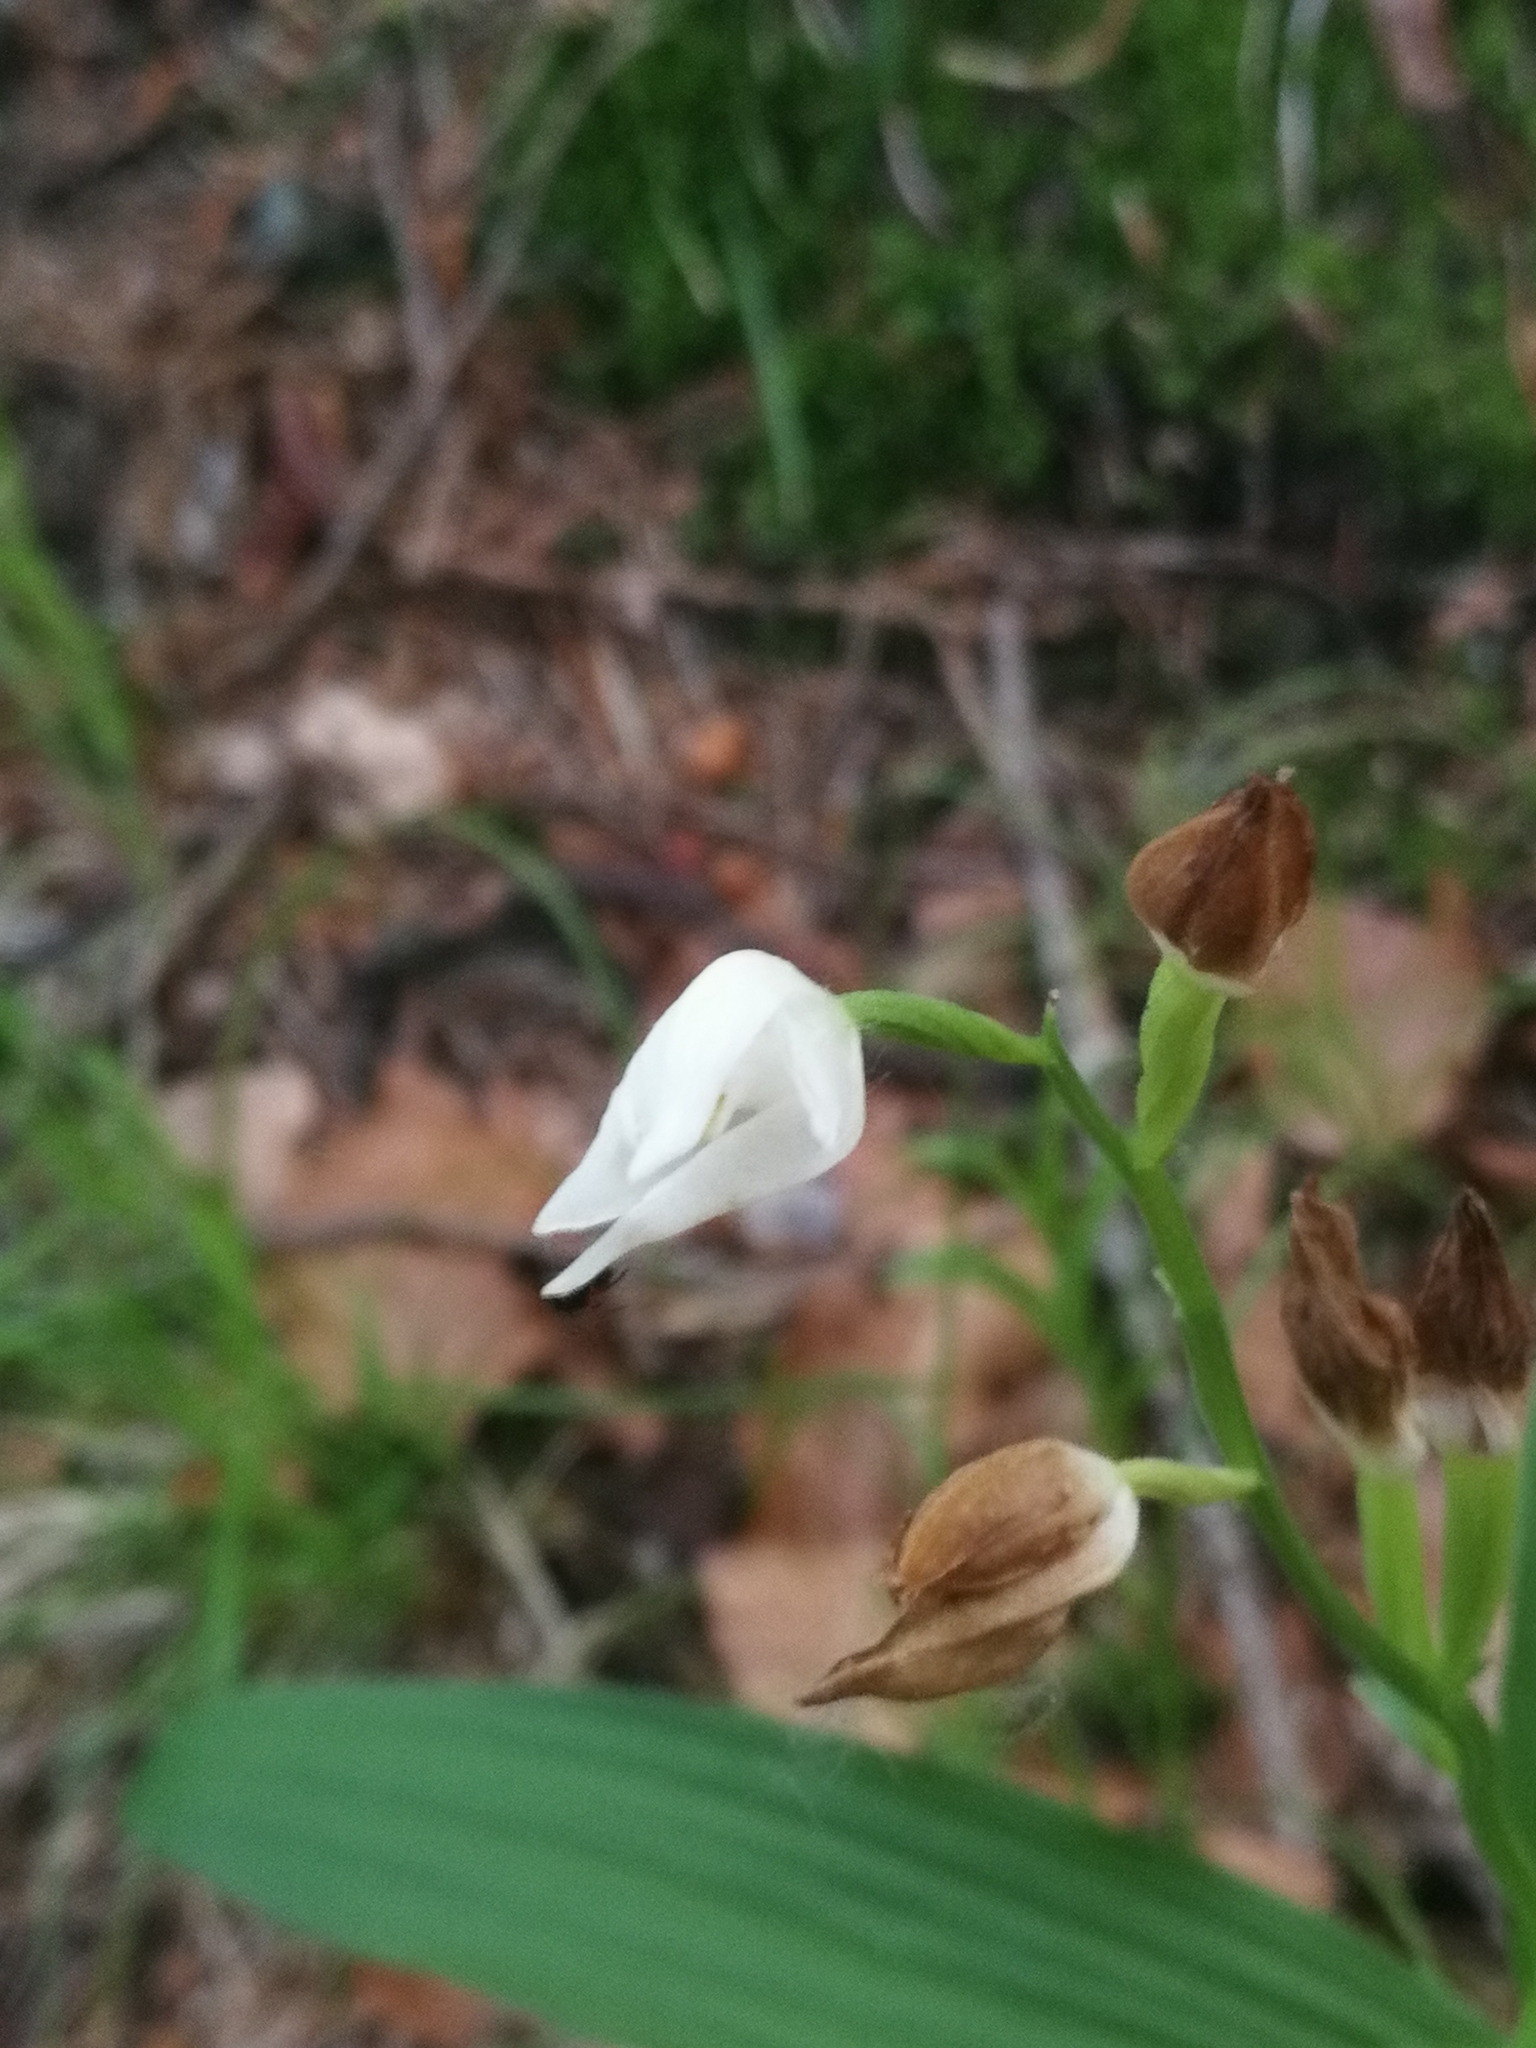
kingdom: Plantae
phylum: Tracheophyta
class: Liliopsida
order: Asparagales
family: Orchidaceae
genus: Cephalanthera
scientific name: Cephalanthera longifolia
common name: Narrow-leaved helleborine
